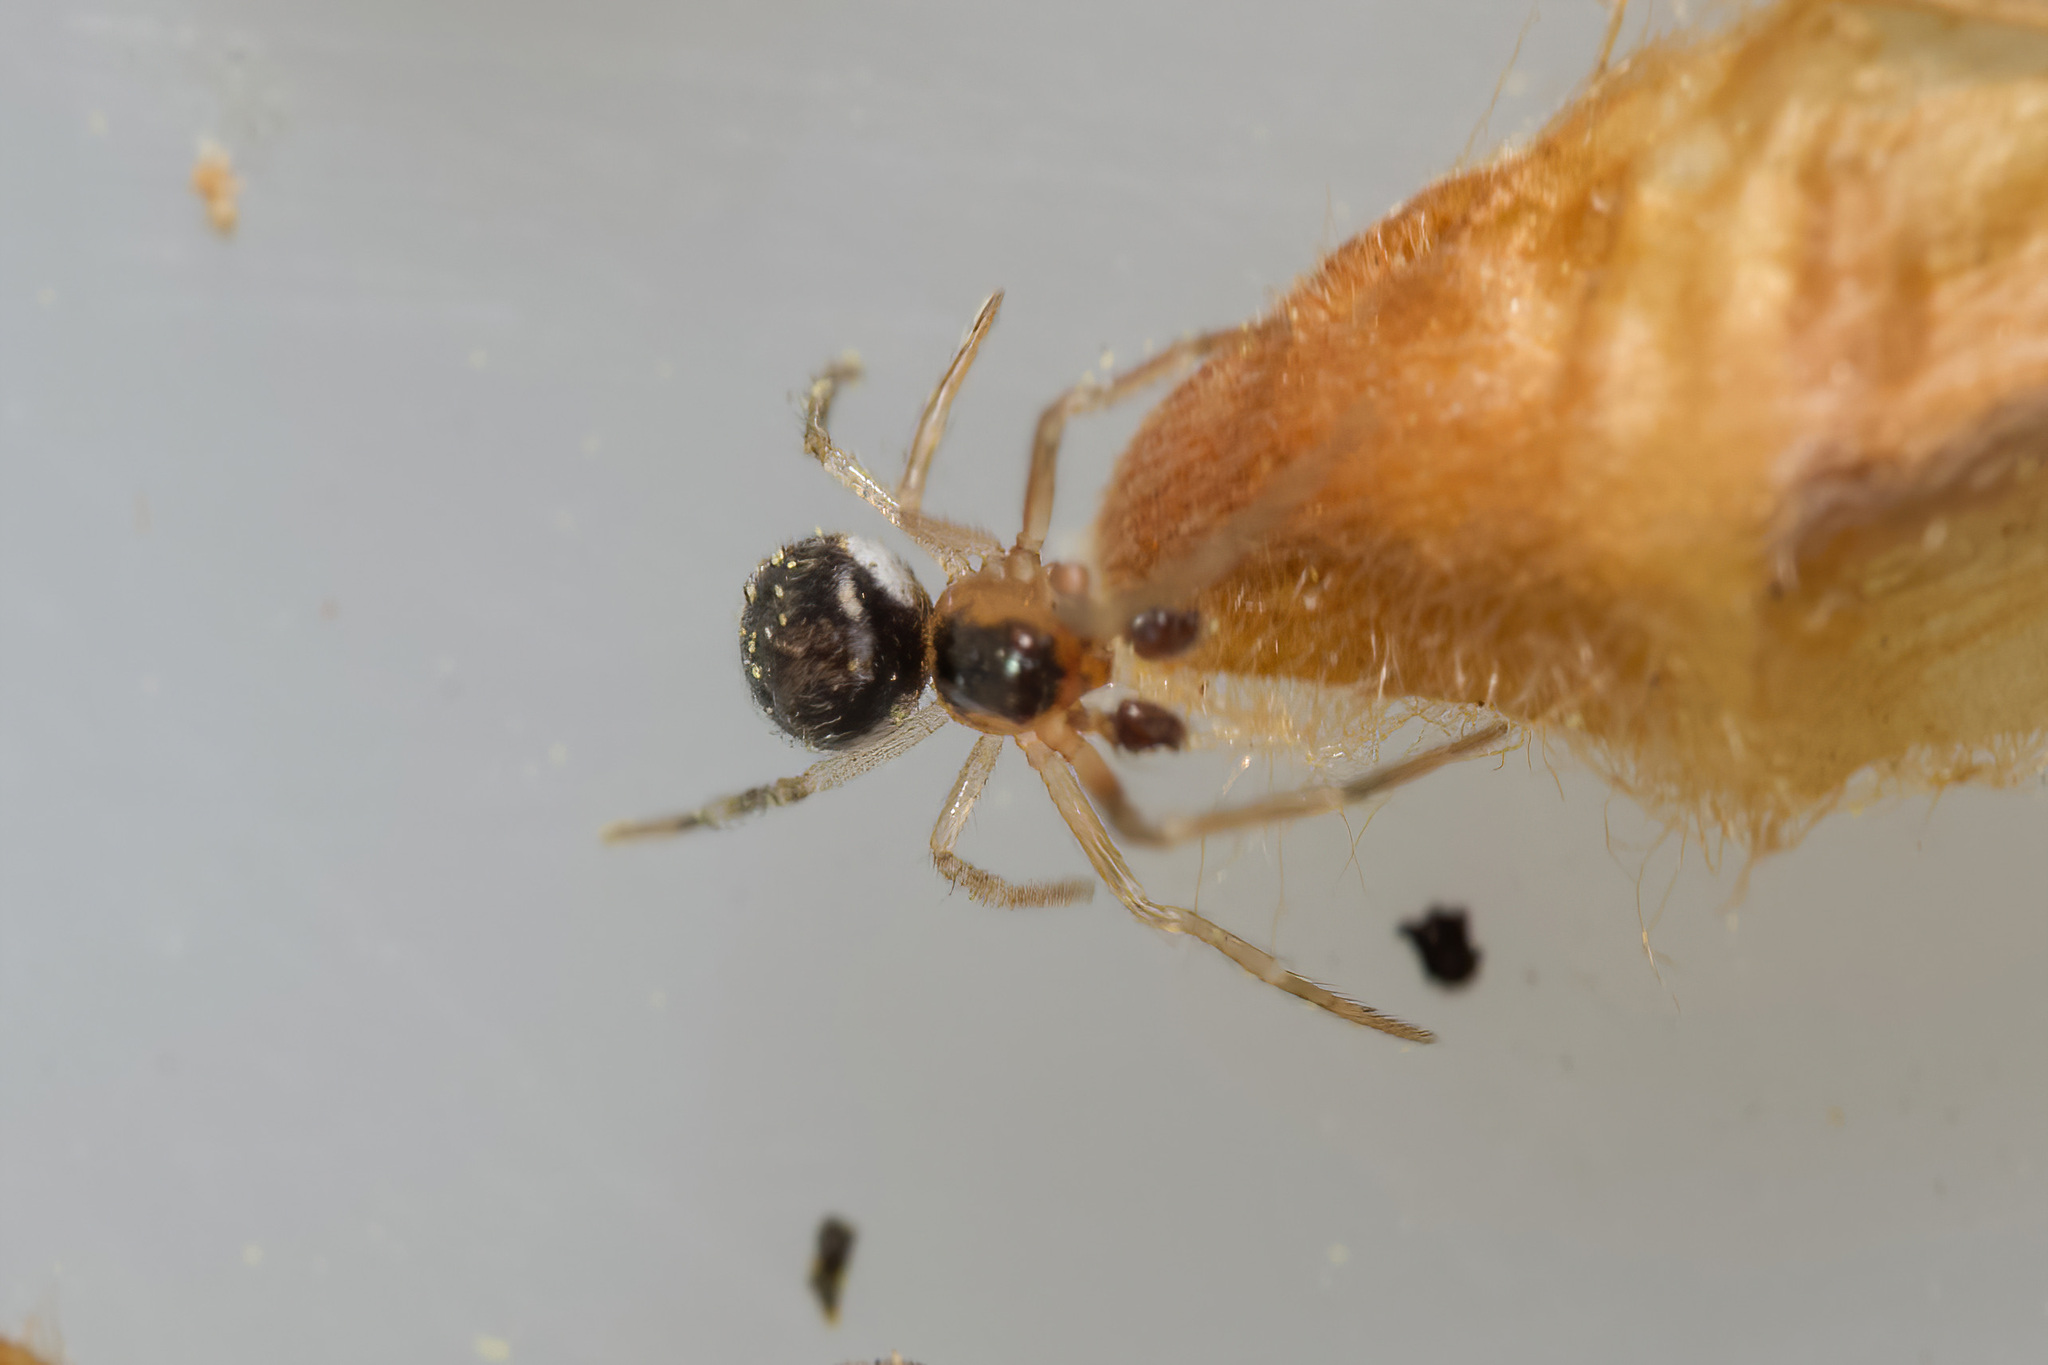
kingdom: Animalia
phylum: Arthropoda
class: Arachnida
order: Araneae
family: Theridiidae
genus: Paidiscura
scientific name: Paidiscura pallens
